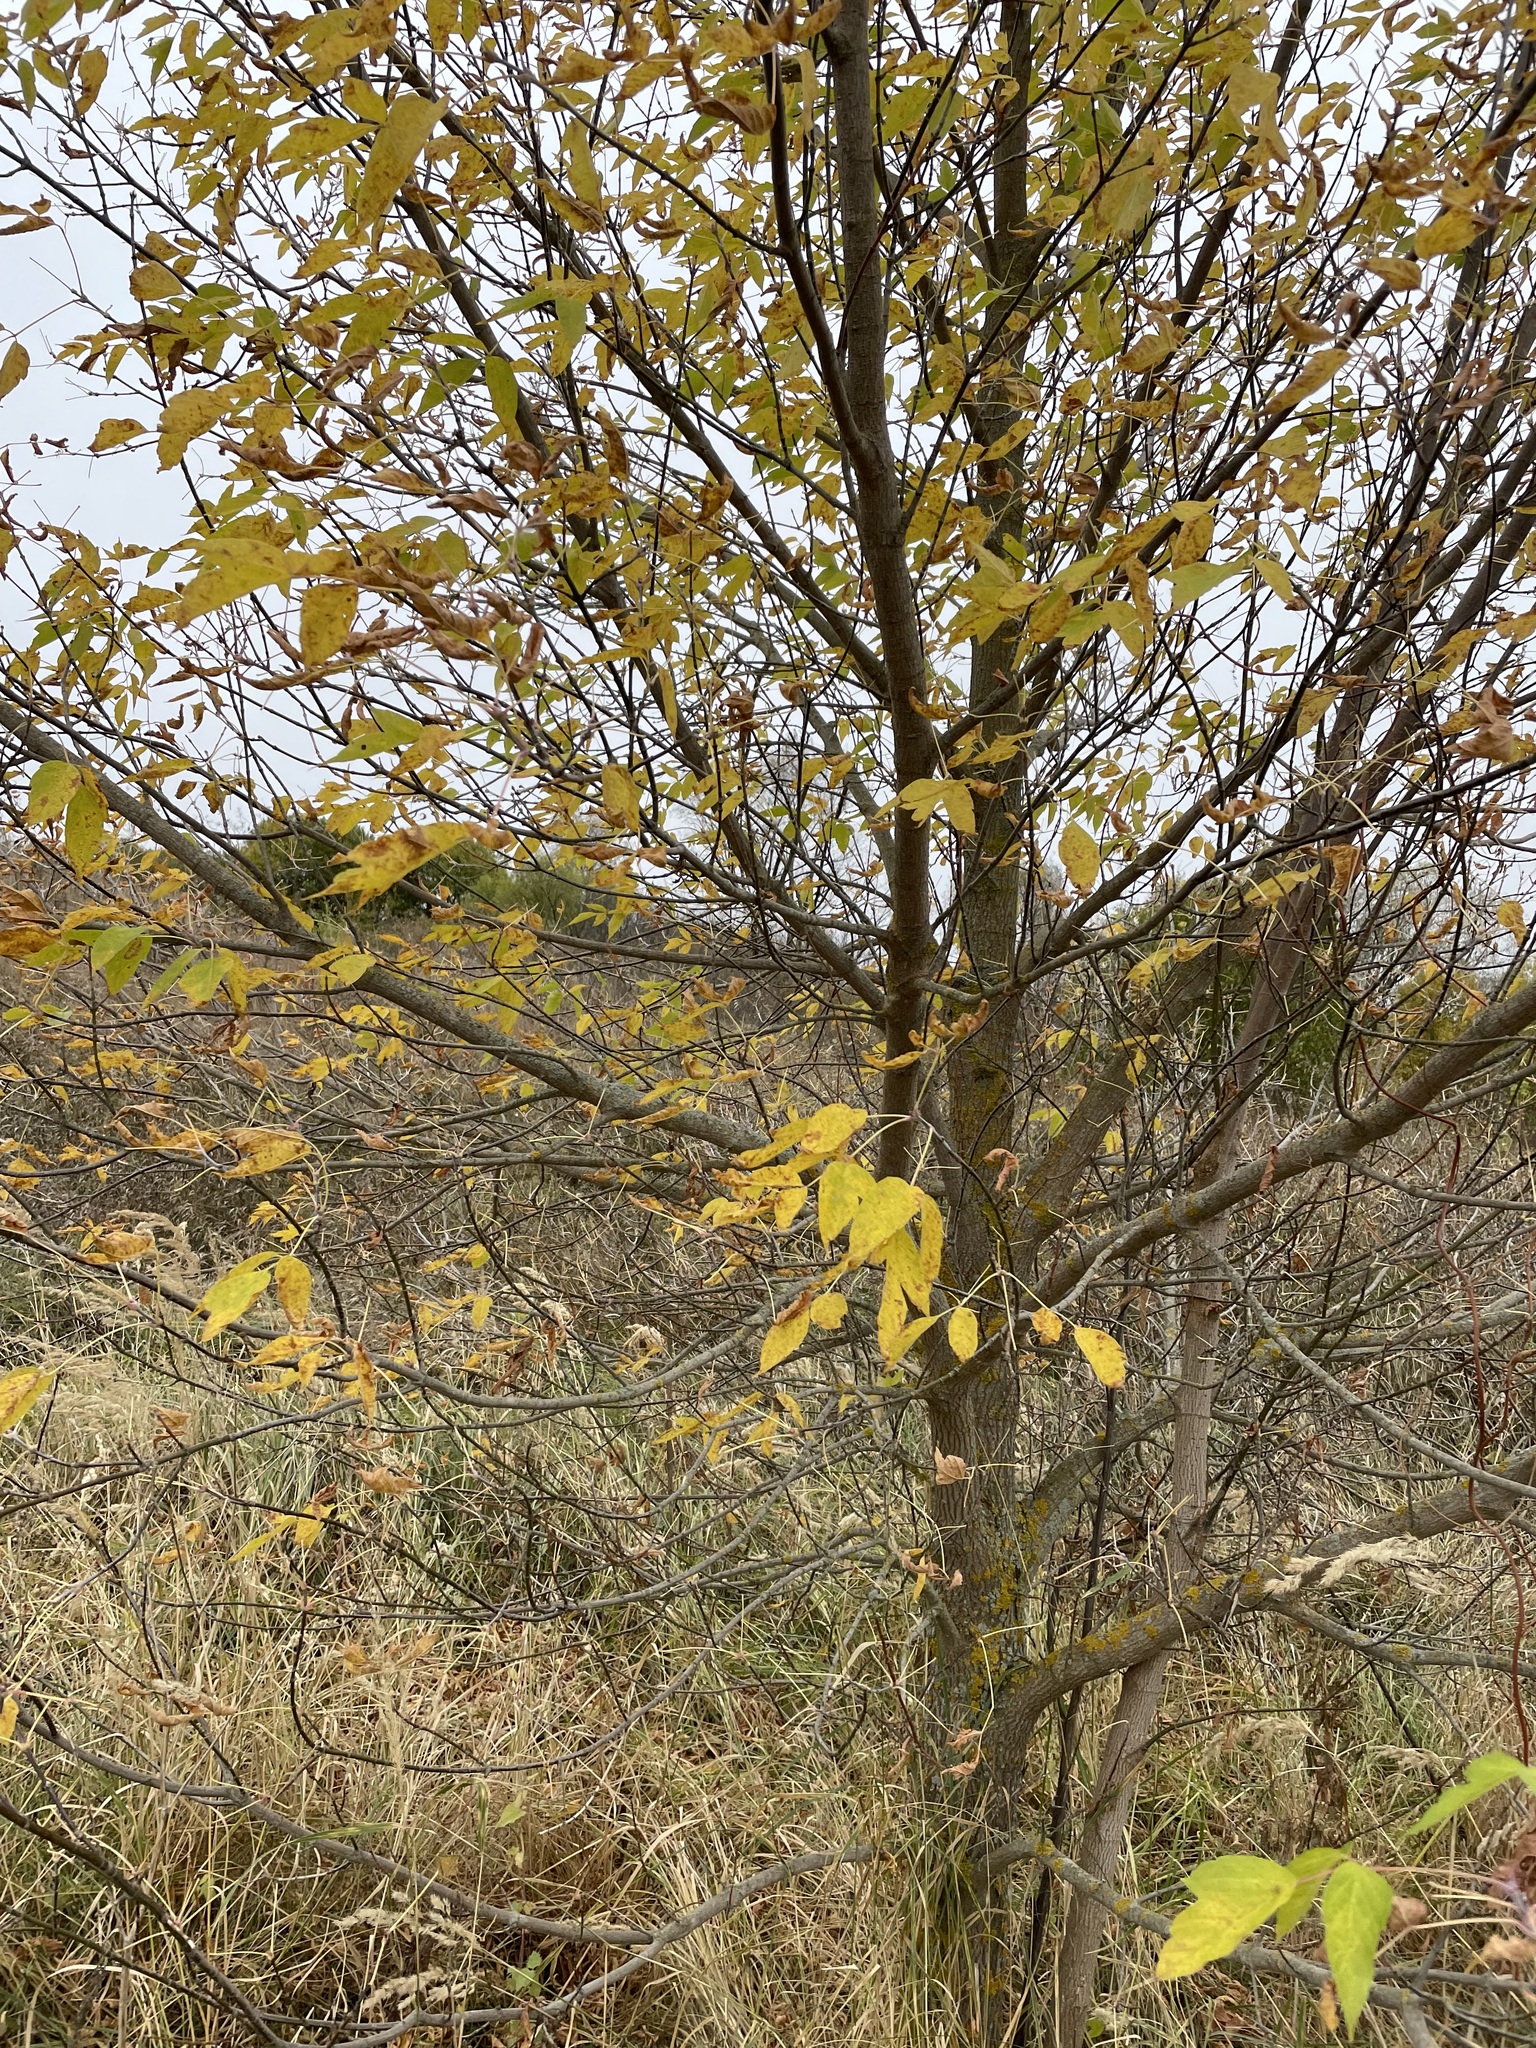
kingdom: Plantae
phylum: Tracheophyta
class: Magnoliopsida
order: Sapindales
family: Sapindaceae
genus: Acer
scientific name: Acer negundo
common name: Ashleaf maple
